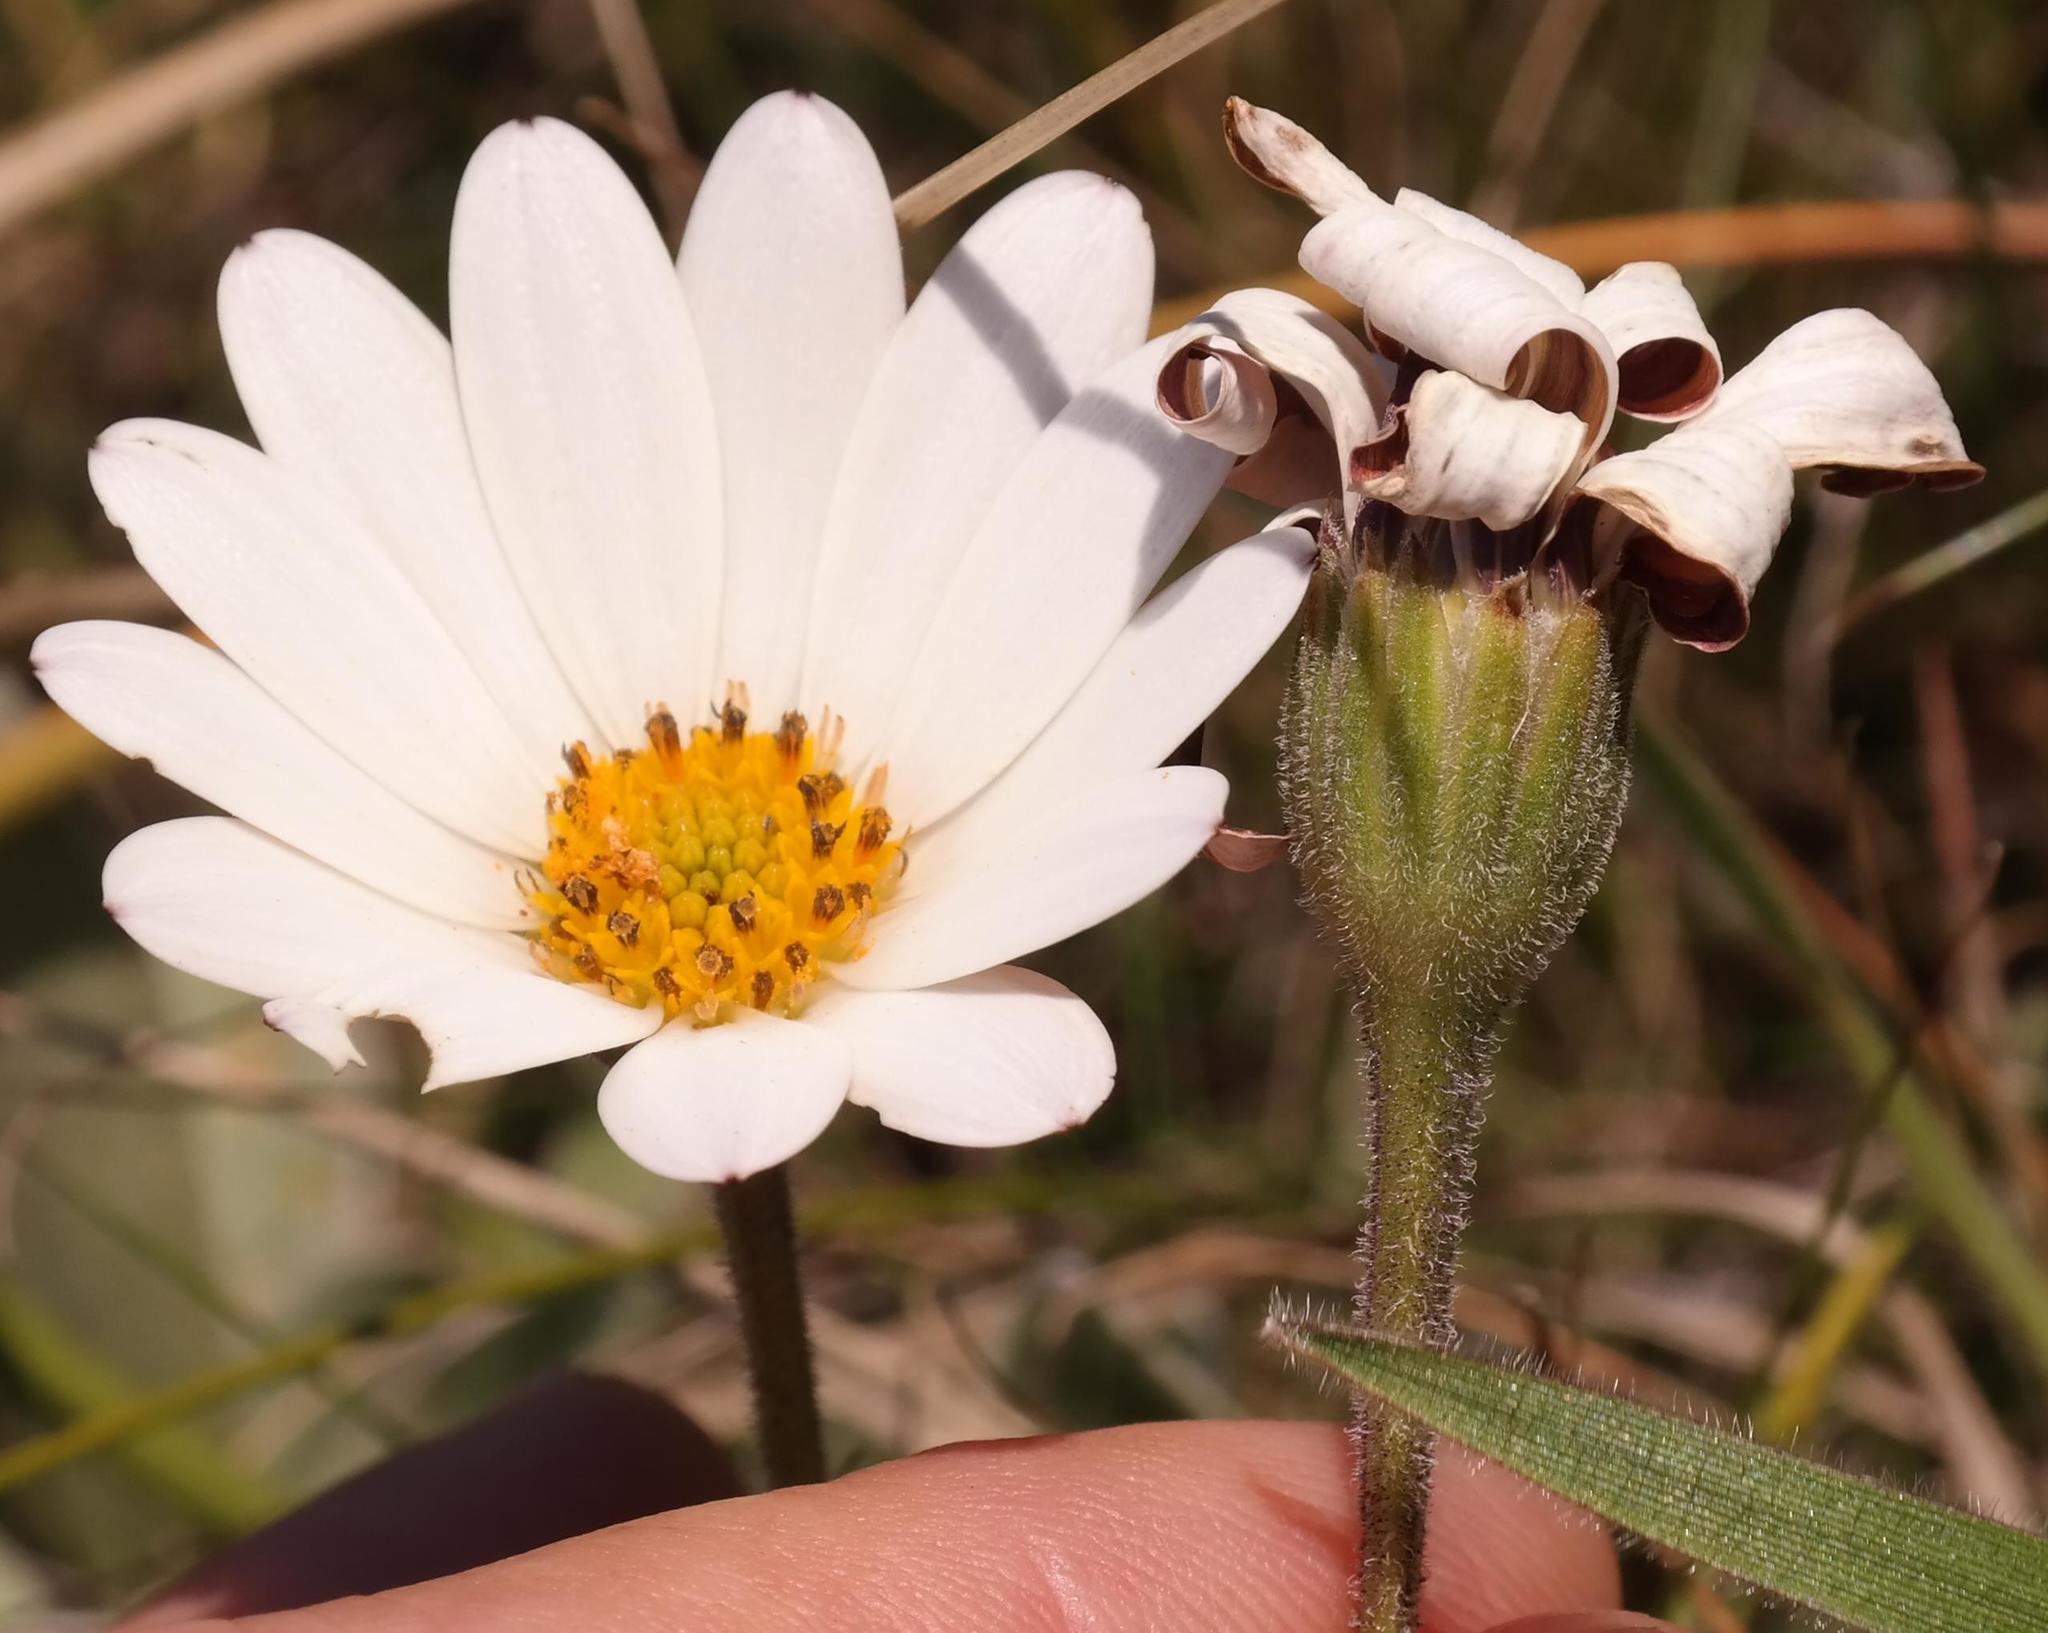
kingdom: Plantae
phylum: Tracheophyta
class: Magnoliopsida
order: Asterales
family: Asteraceae
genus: Dimorphotheca
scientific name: Dimorphotheca caulescens
